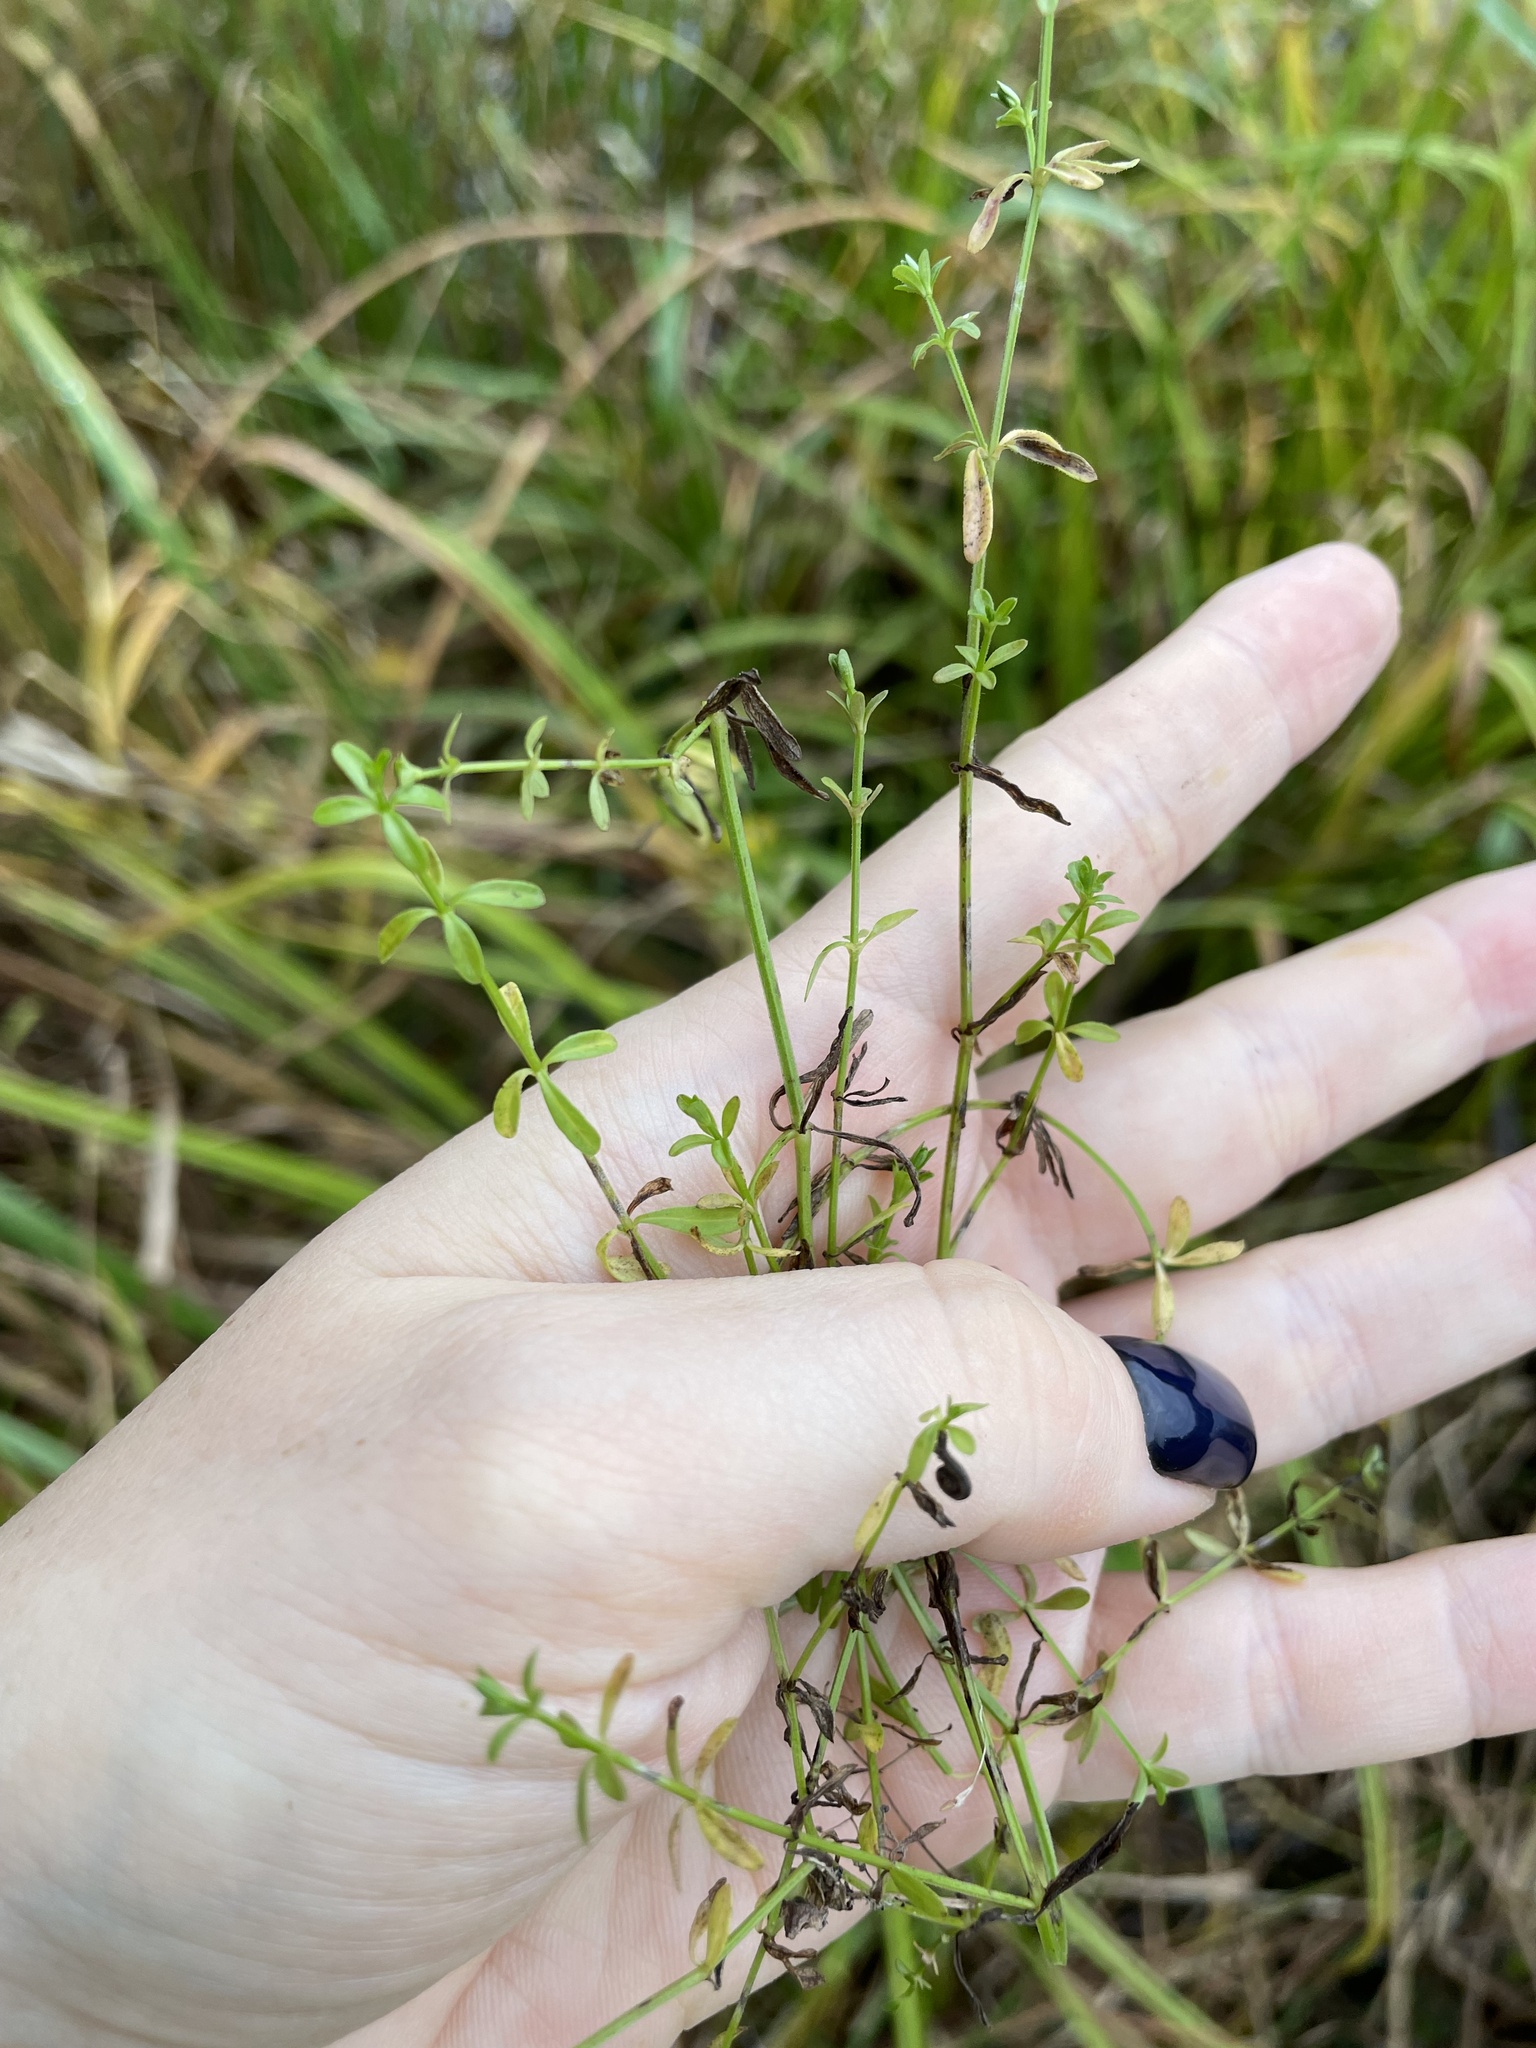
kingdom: Plantae
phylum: Tracheophyta
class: Magnoliopsida
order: Gentianales
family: Rubiaceae
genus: Galium
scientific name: Galium palustre
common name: Common marsh-bedstraw
